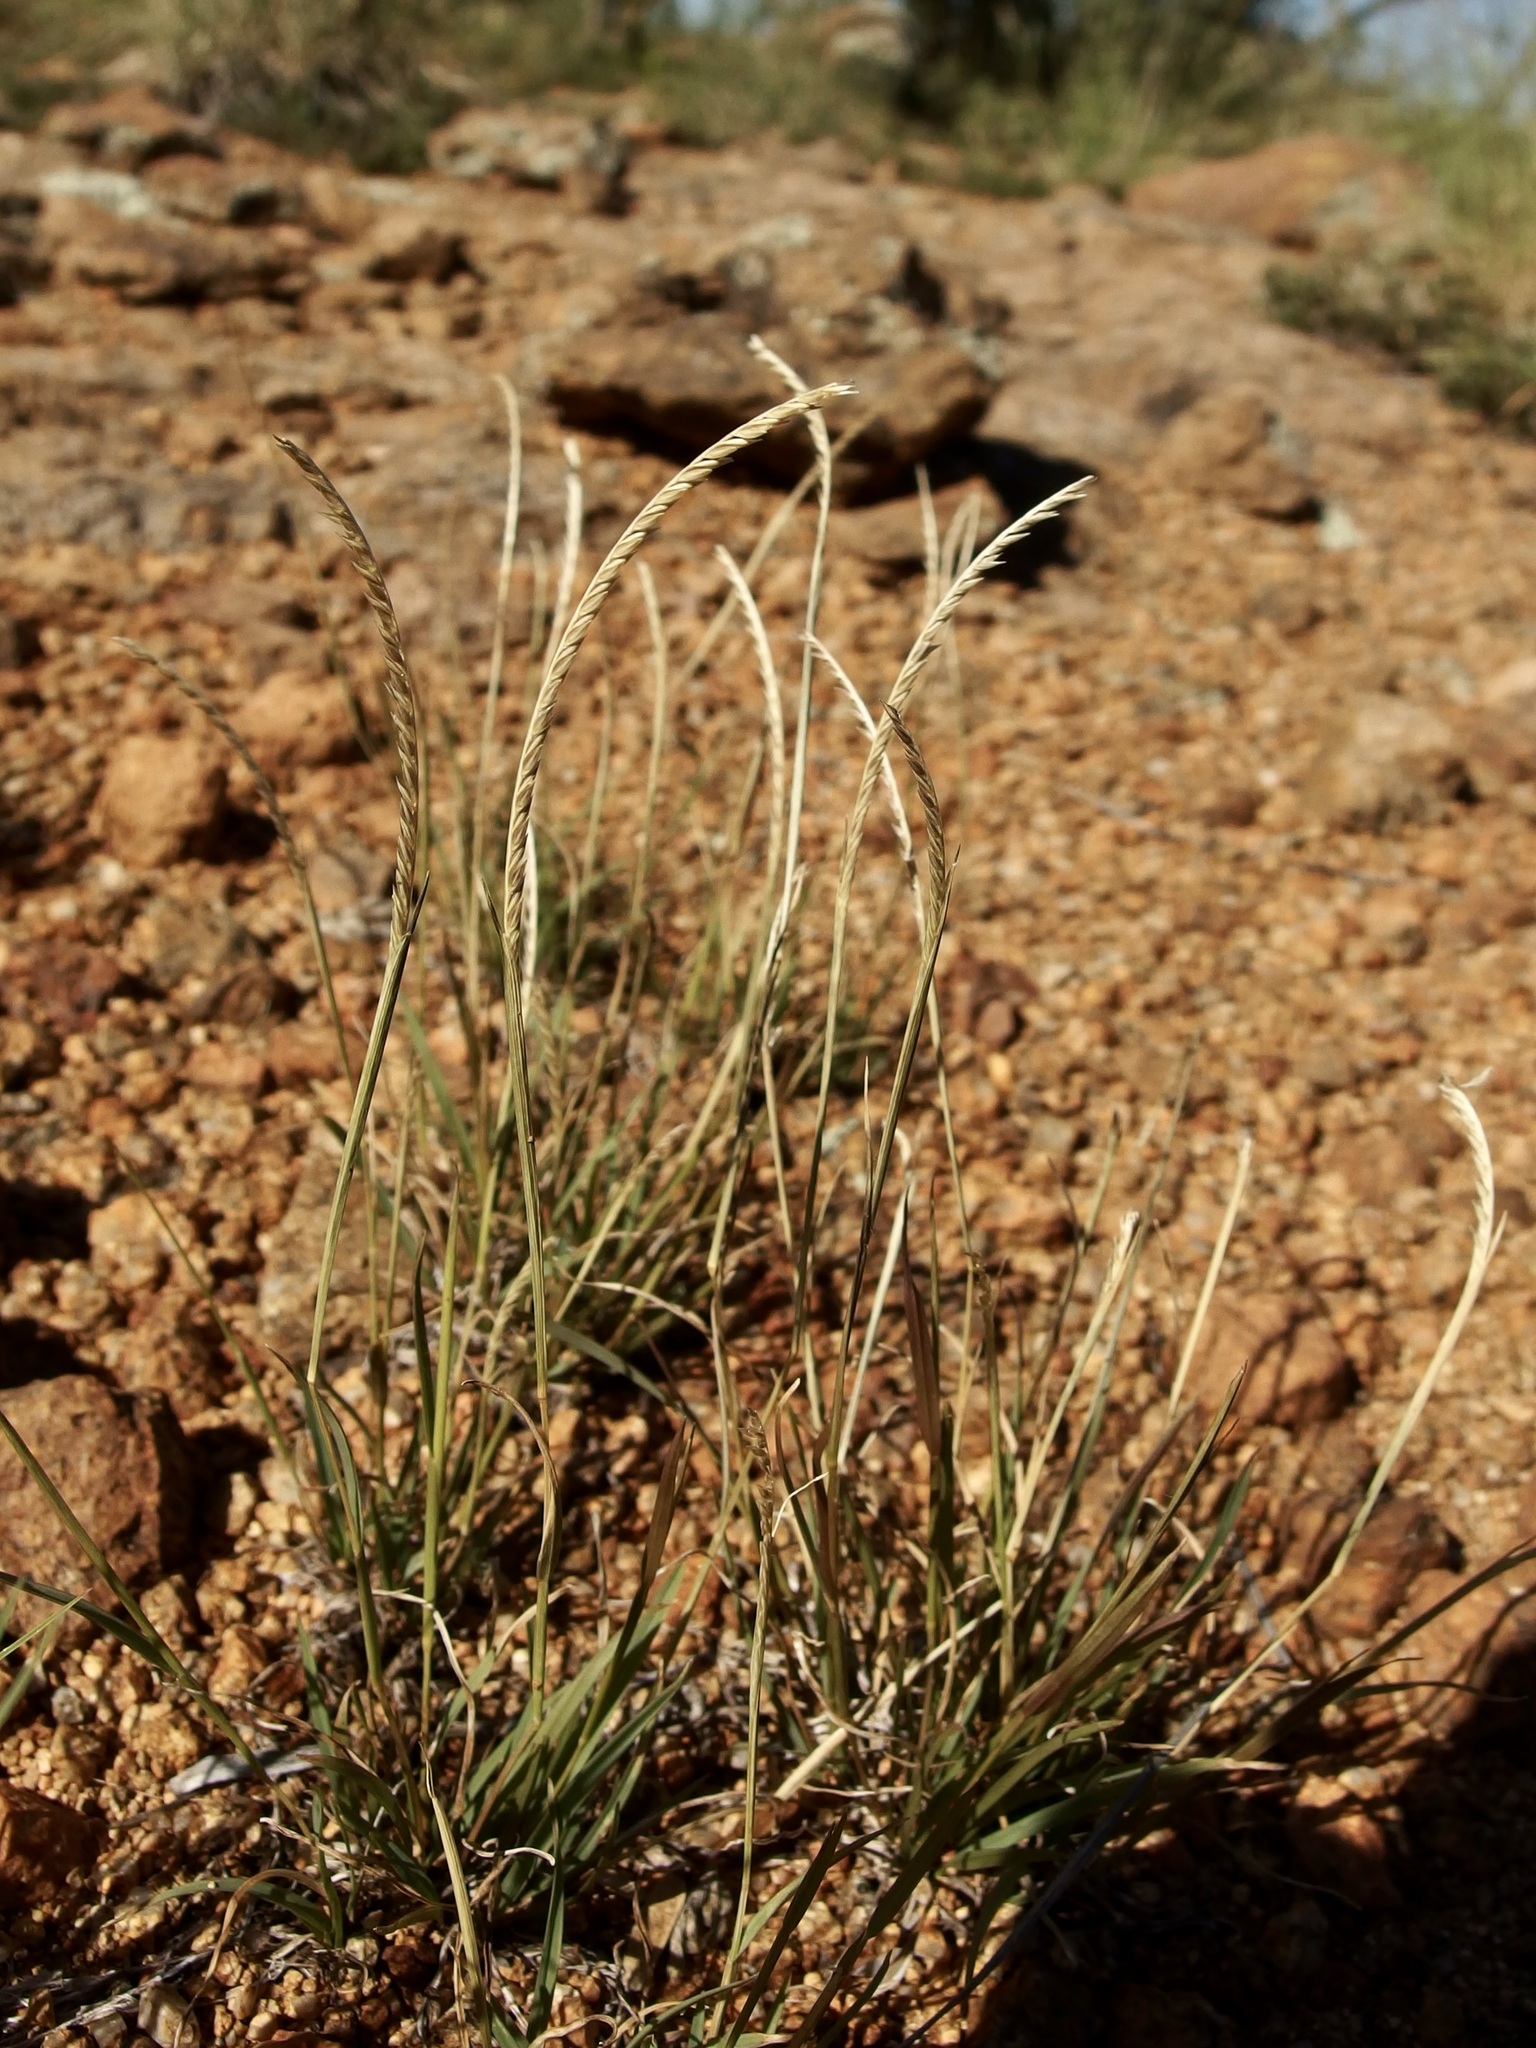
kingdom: Plantae
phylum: Tracheophyta
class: Liliopsida
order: Poales
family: Poaceae
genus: Microchloa
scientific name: Microchloa kunthii
